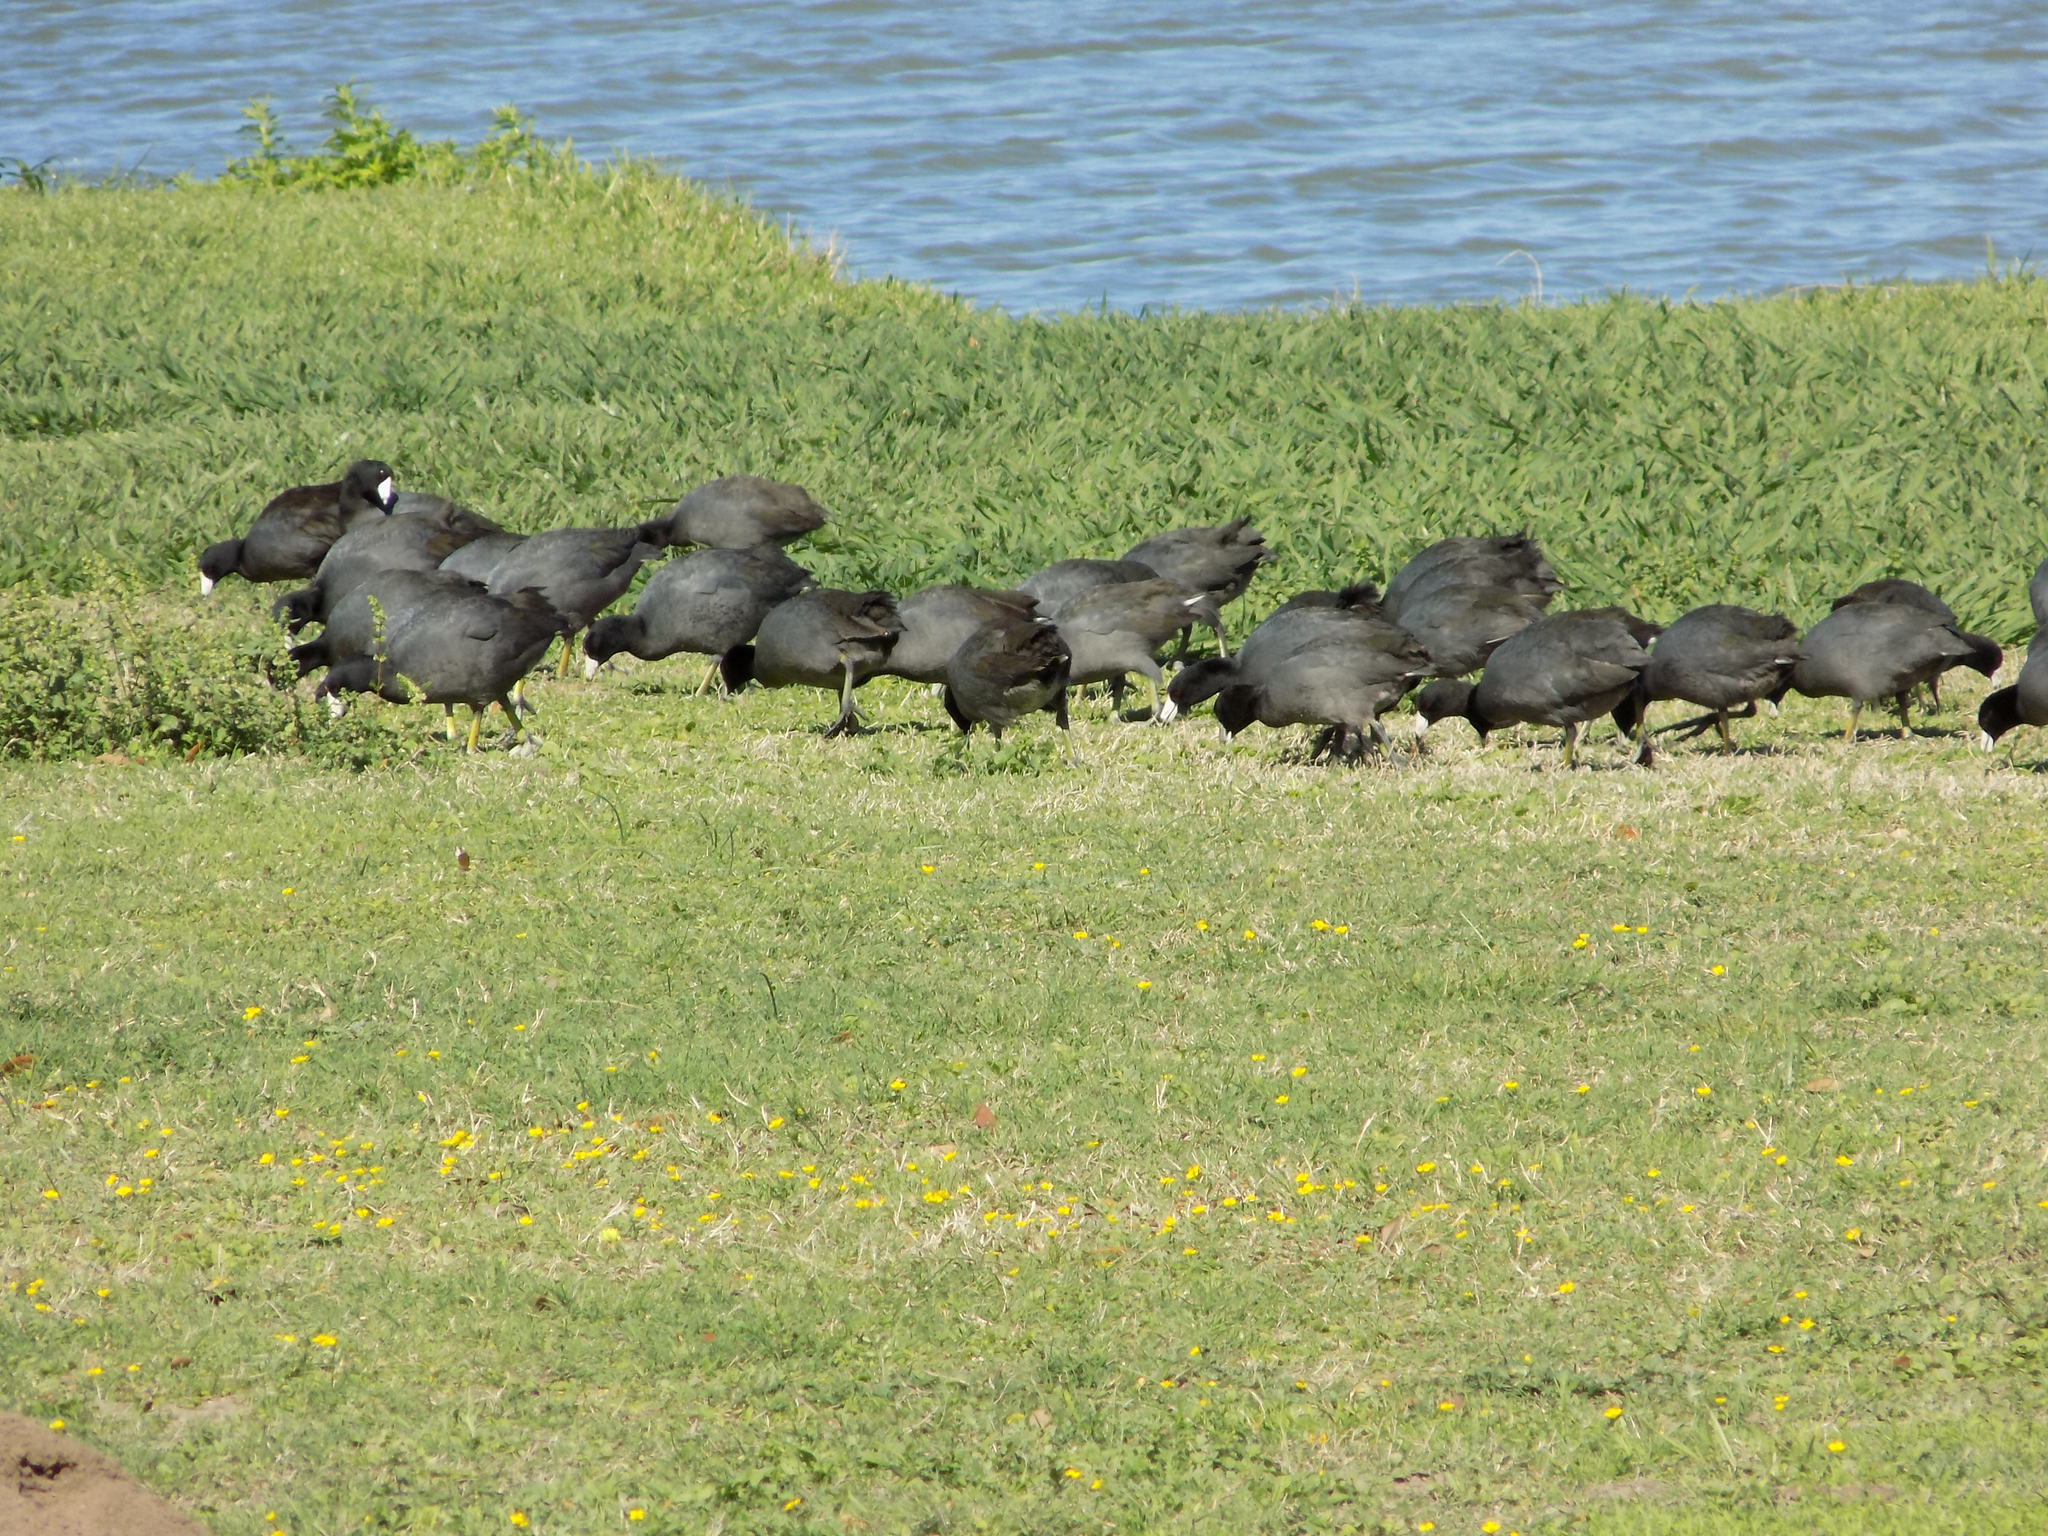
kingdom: Animalia
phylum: Chordata
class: Aves
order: Gruiformes
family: Rallidae
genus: Fulica
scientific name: Fulica americana
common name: American coot
